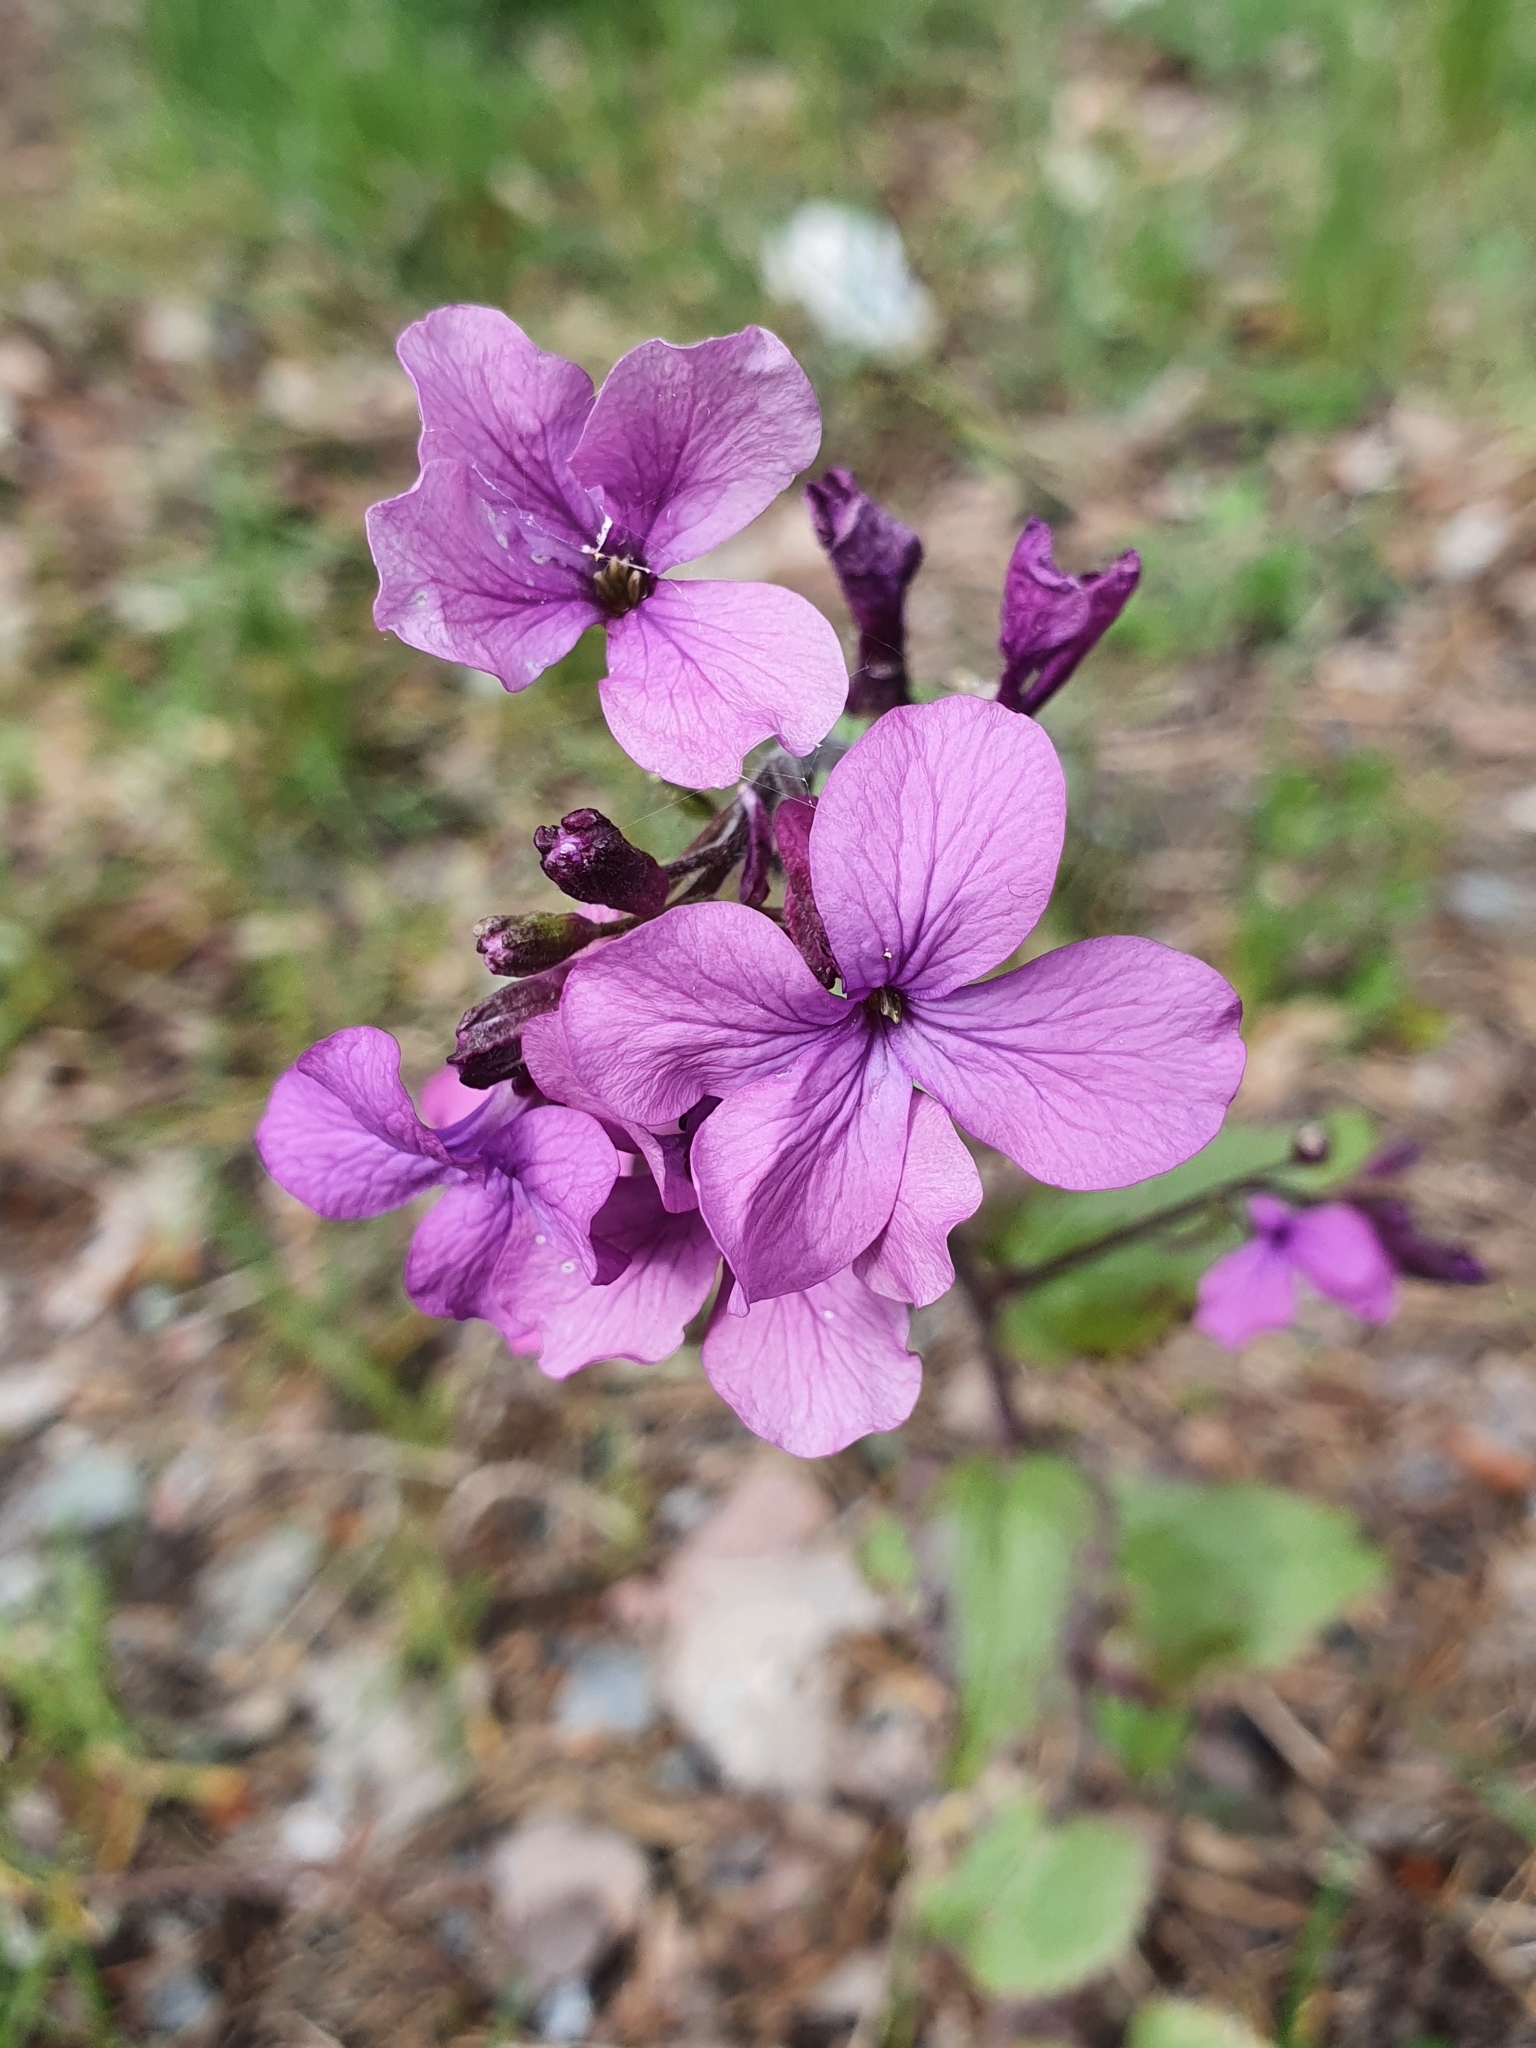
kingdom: Plantae
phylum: Tracheophyta
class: Magnoliopsida
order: Brassicales
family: Brassicaceae
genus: Lunaria
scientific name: Lunaria annua
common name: Honesty
